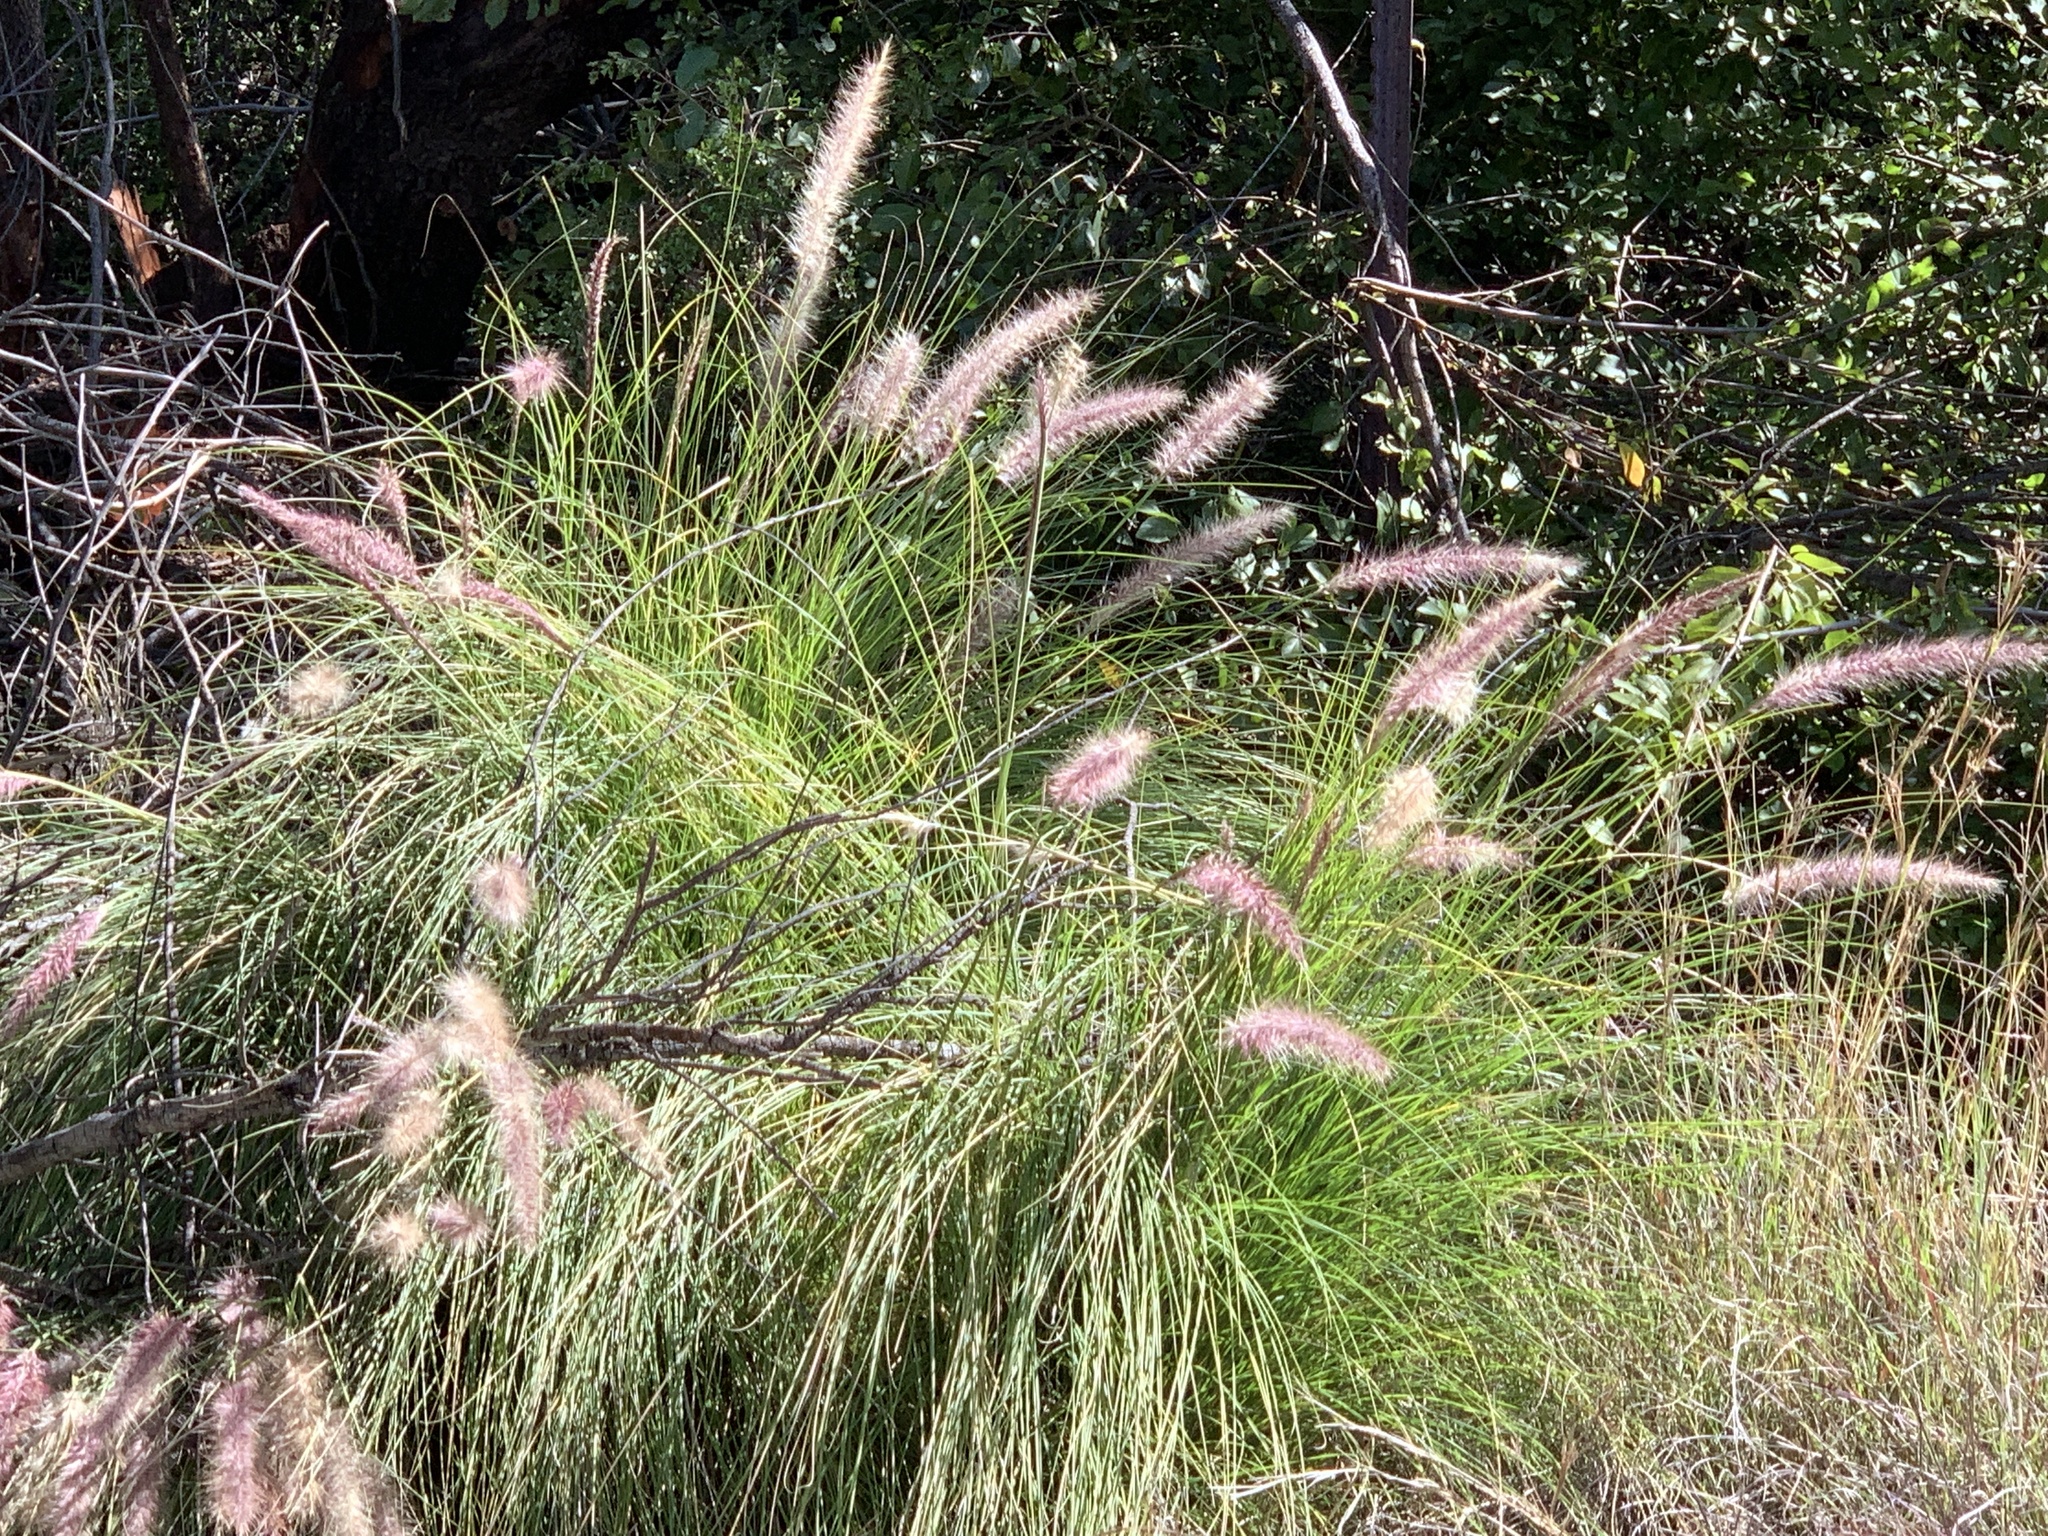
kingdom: Plantae
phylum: Tracheophyta
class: Liliopsida
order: Poales
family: Poaceae
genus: Cenchrus
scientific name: Cenchrus setaceus
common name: Crimson fountaingrass
